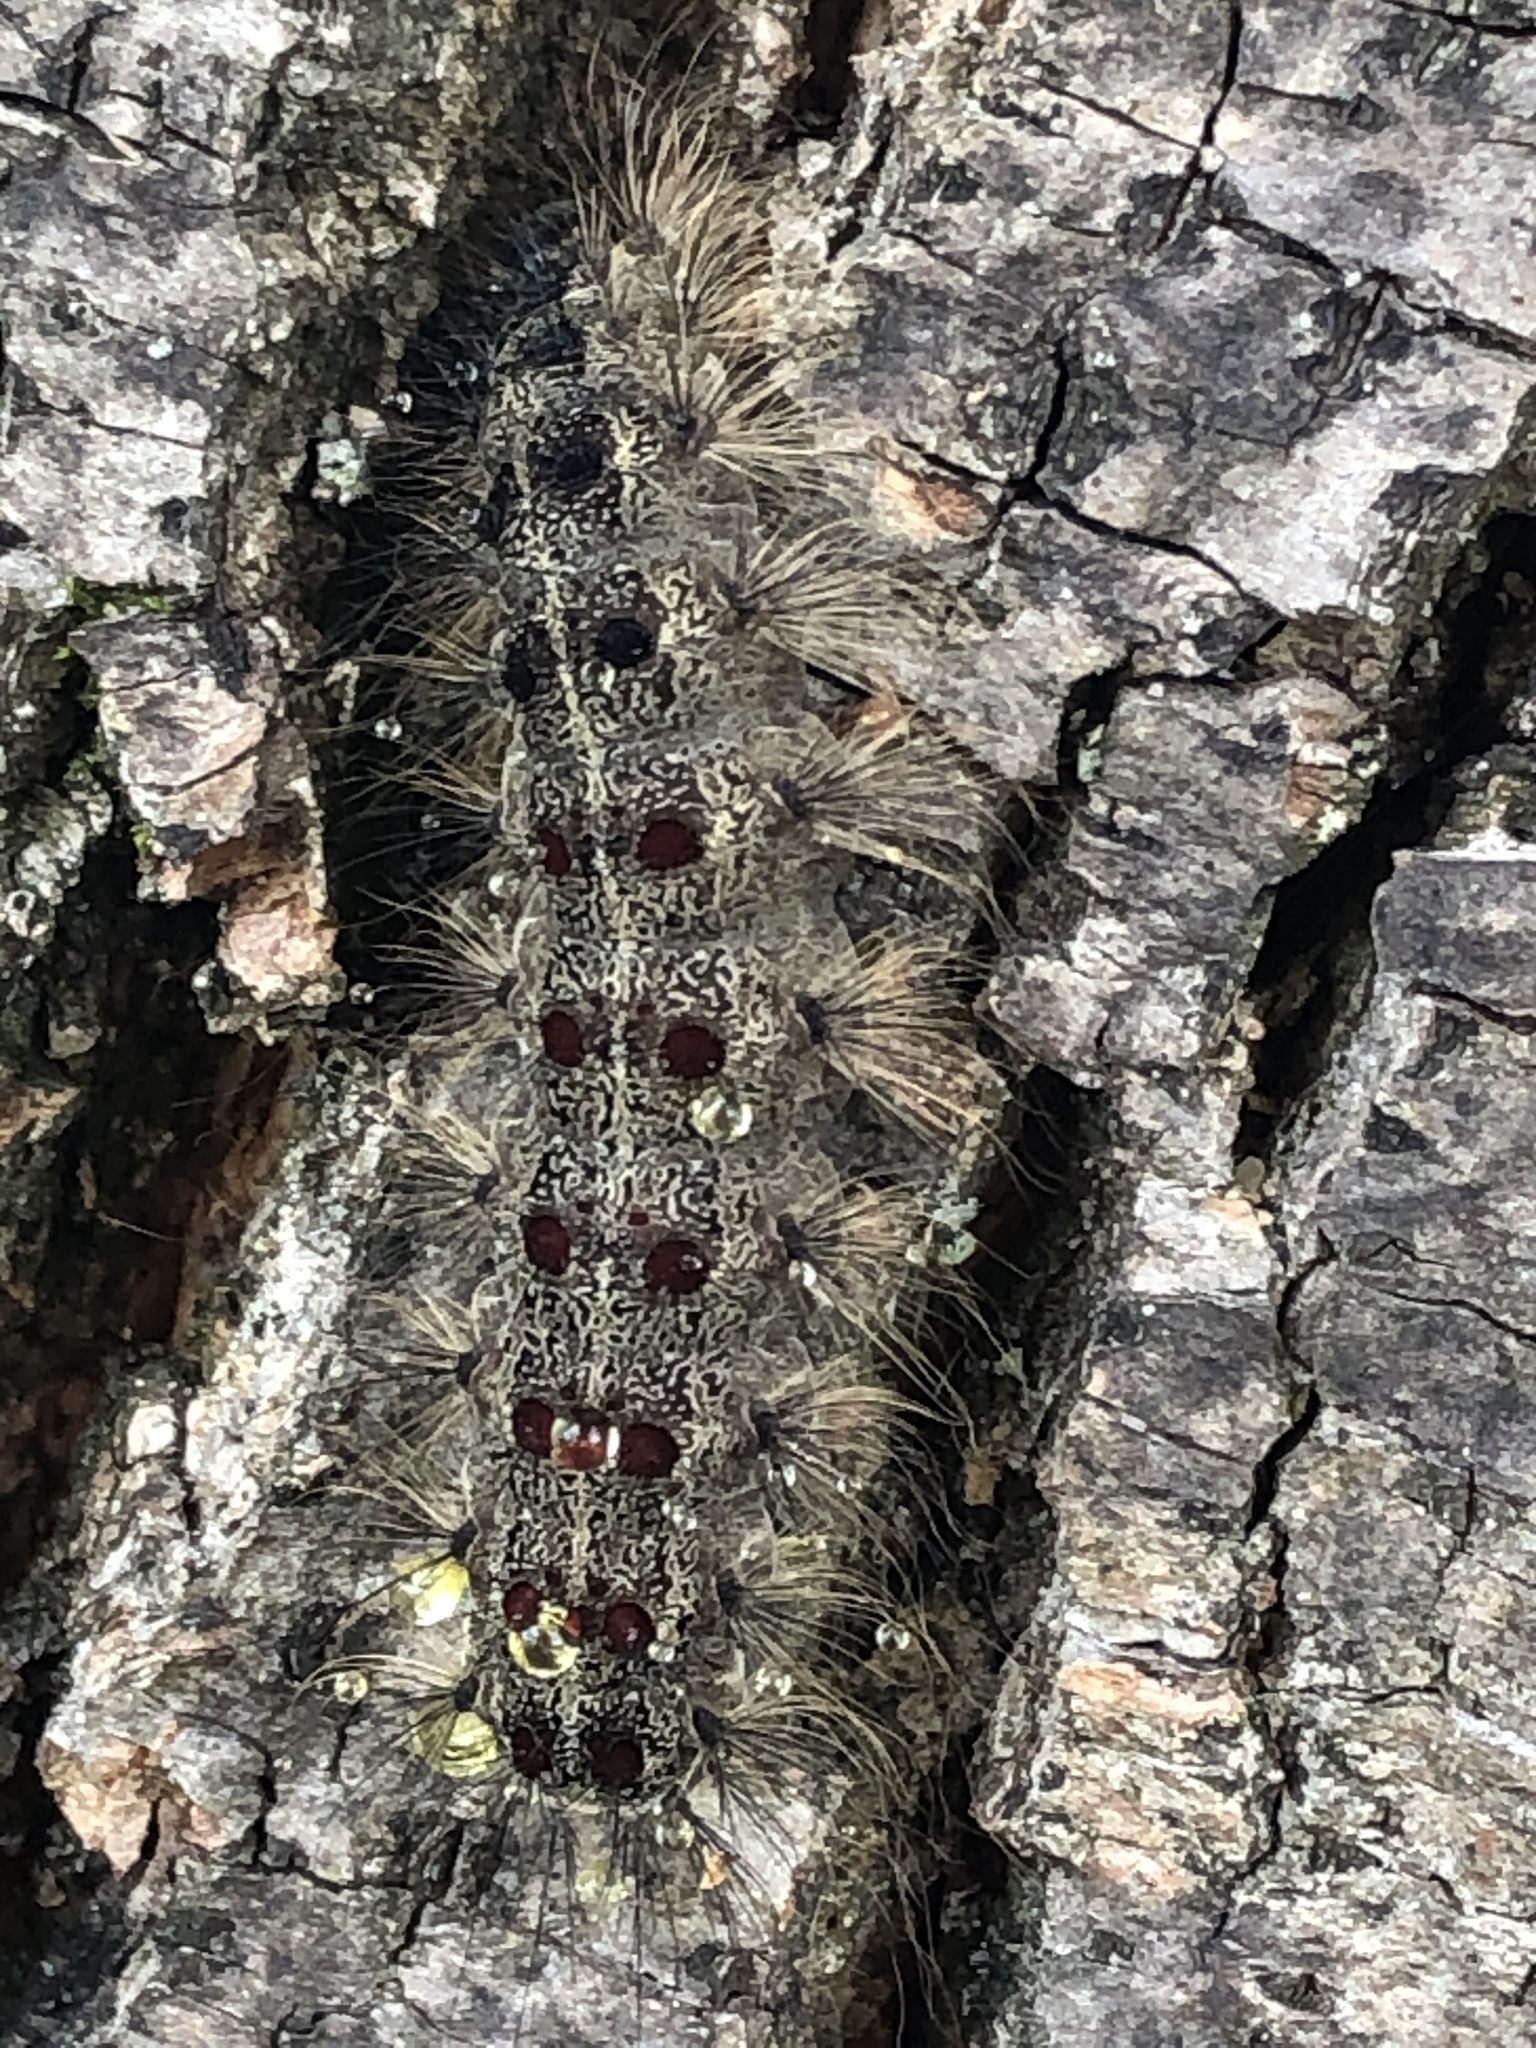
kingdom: Animalia
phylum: Arthropoda
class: Insecta
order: Lepidoptera
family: Erebidae
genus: Lymantria
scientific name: Lymantria dispar
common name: Gypsy moth
